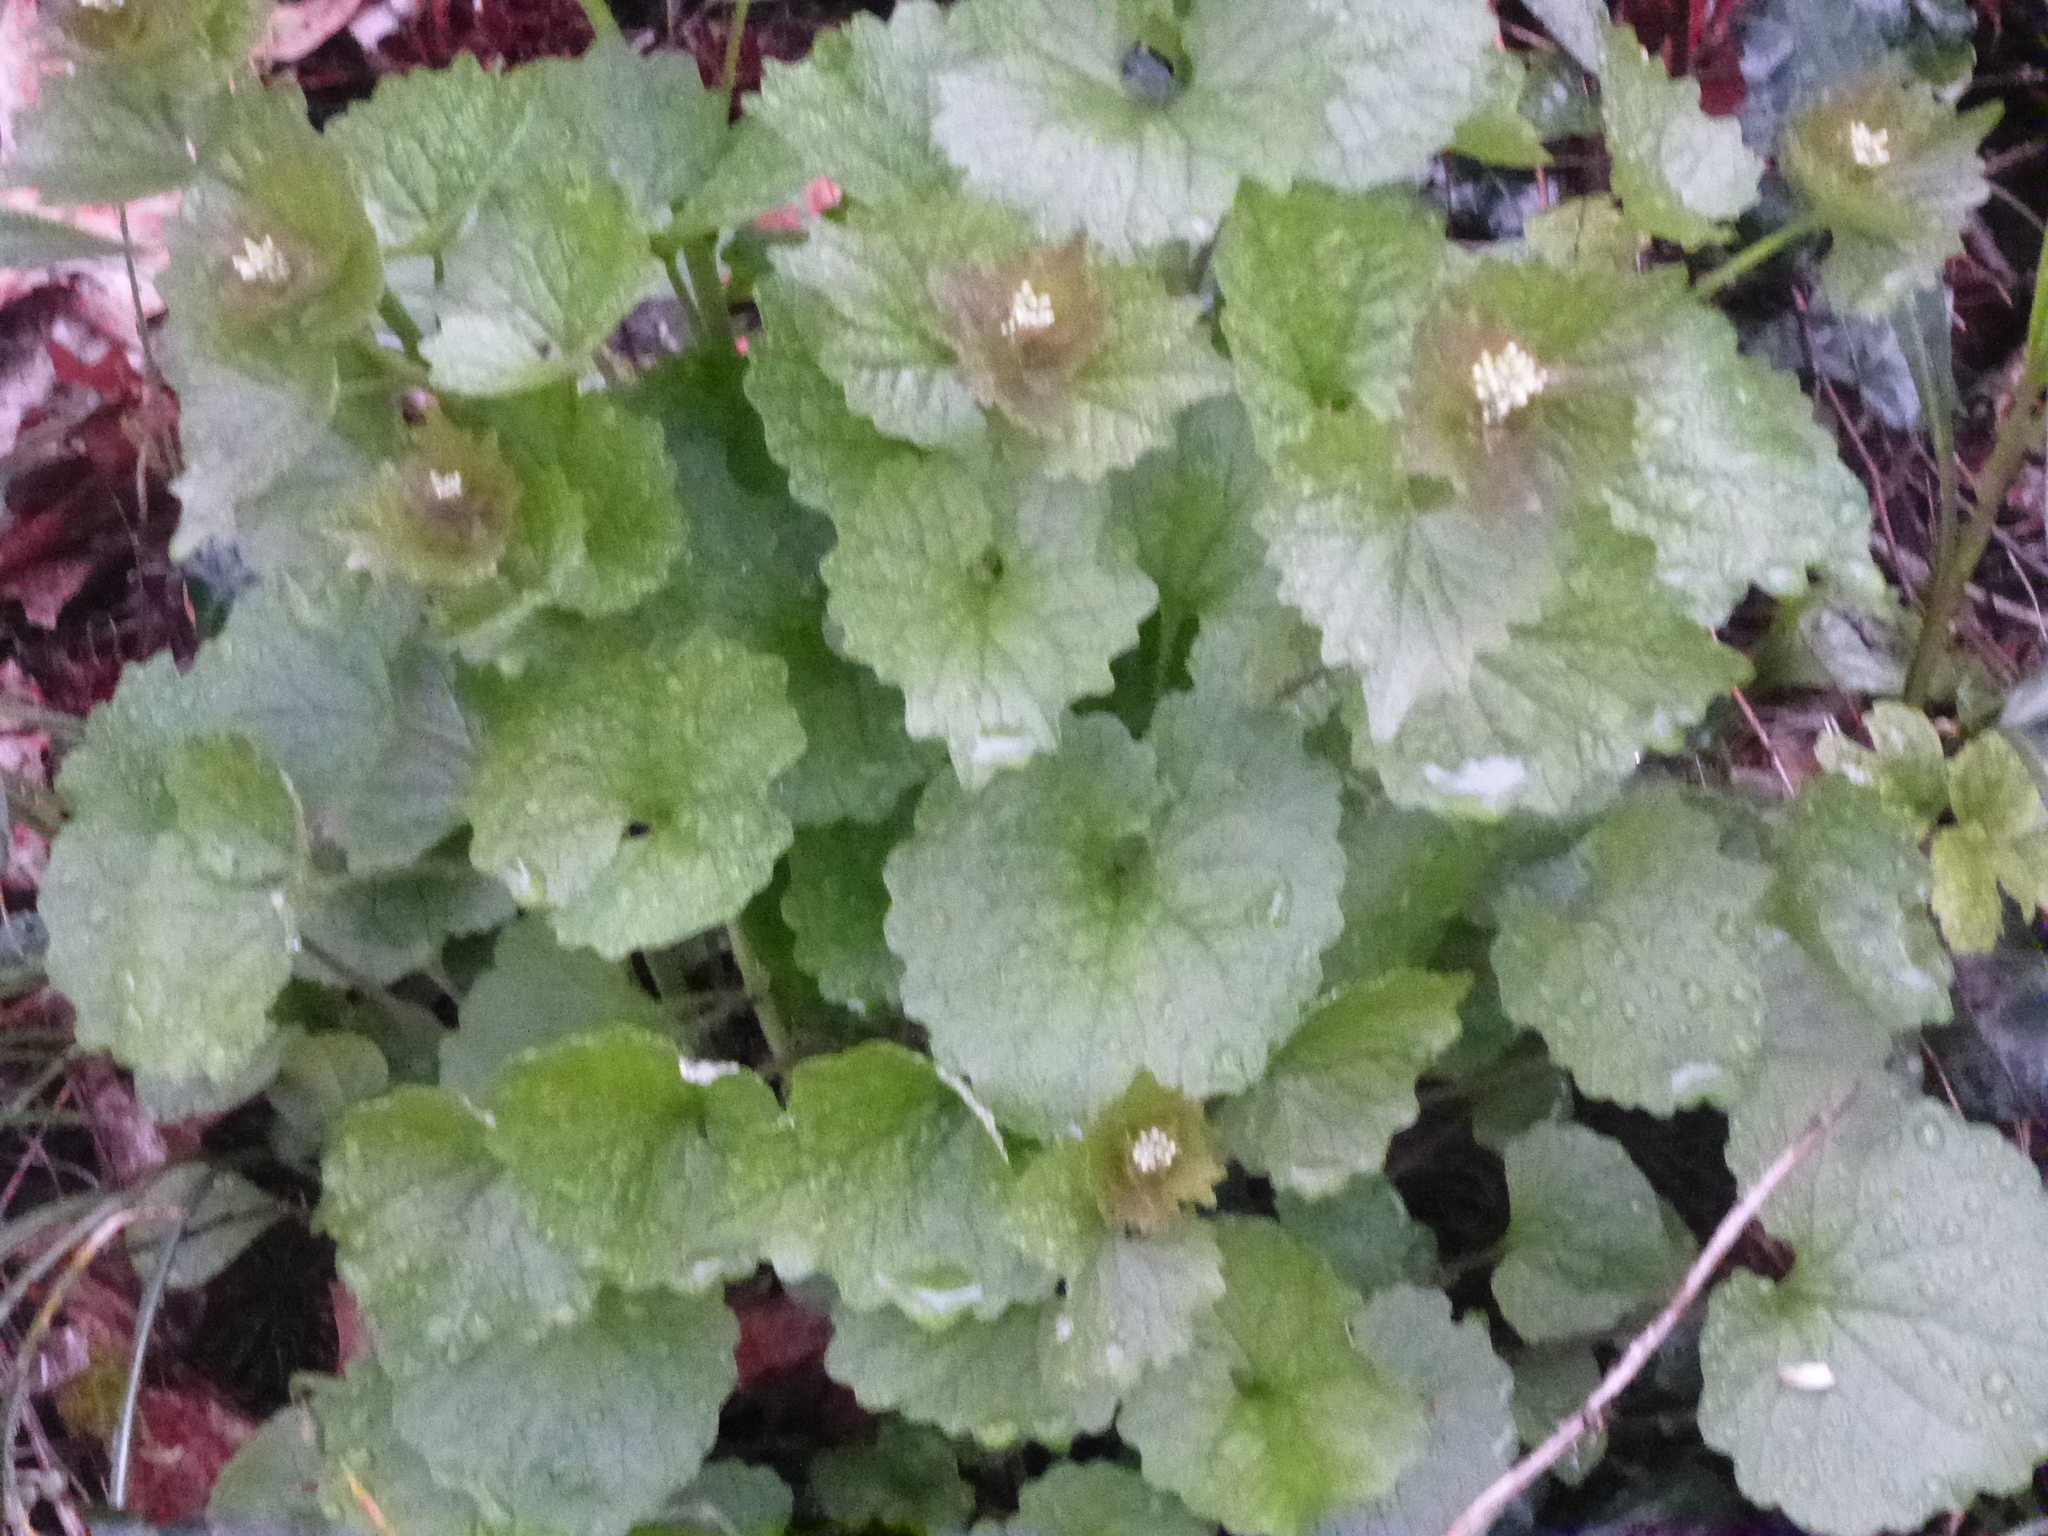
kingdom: Plantae
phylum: Tracheophyta
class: Magnoliopsida
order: Brassicales
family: Brassicaceae
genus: Alliaria
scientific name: Alliaria petiolata
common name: Garlic mustard
